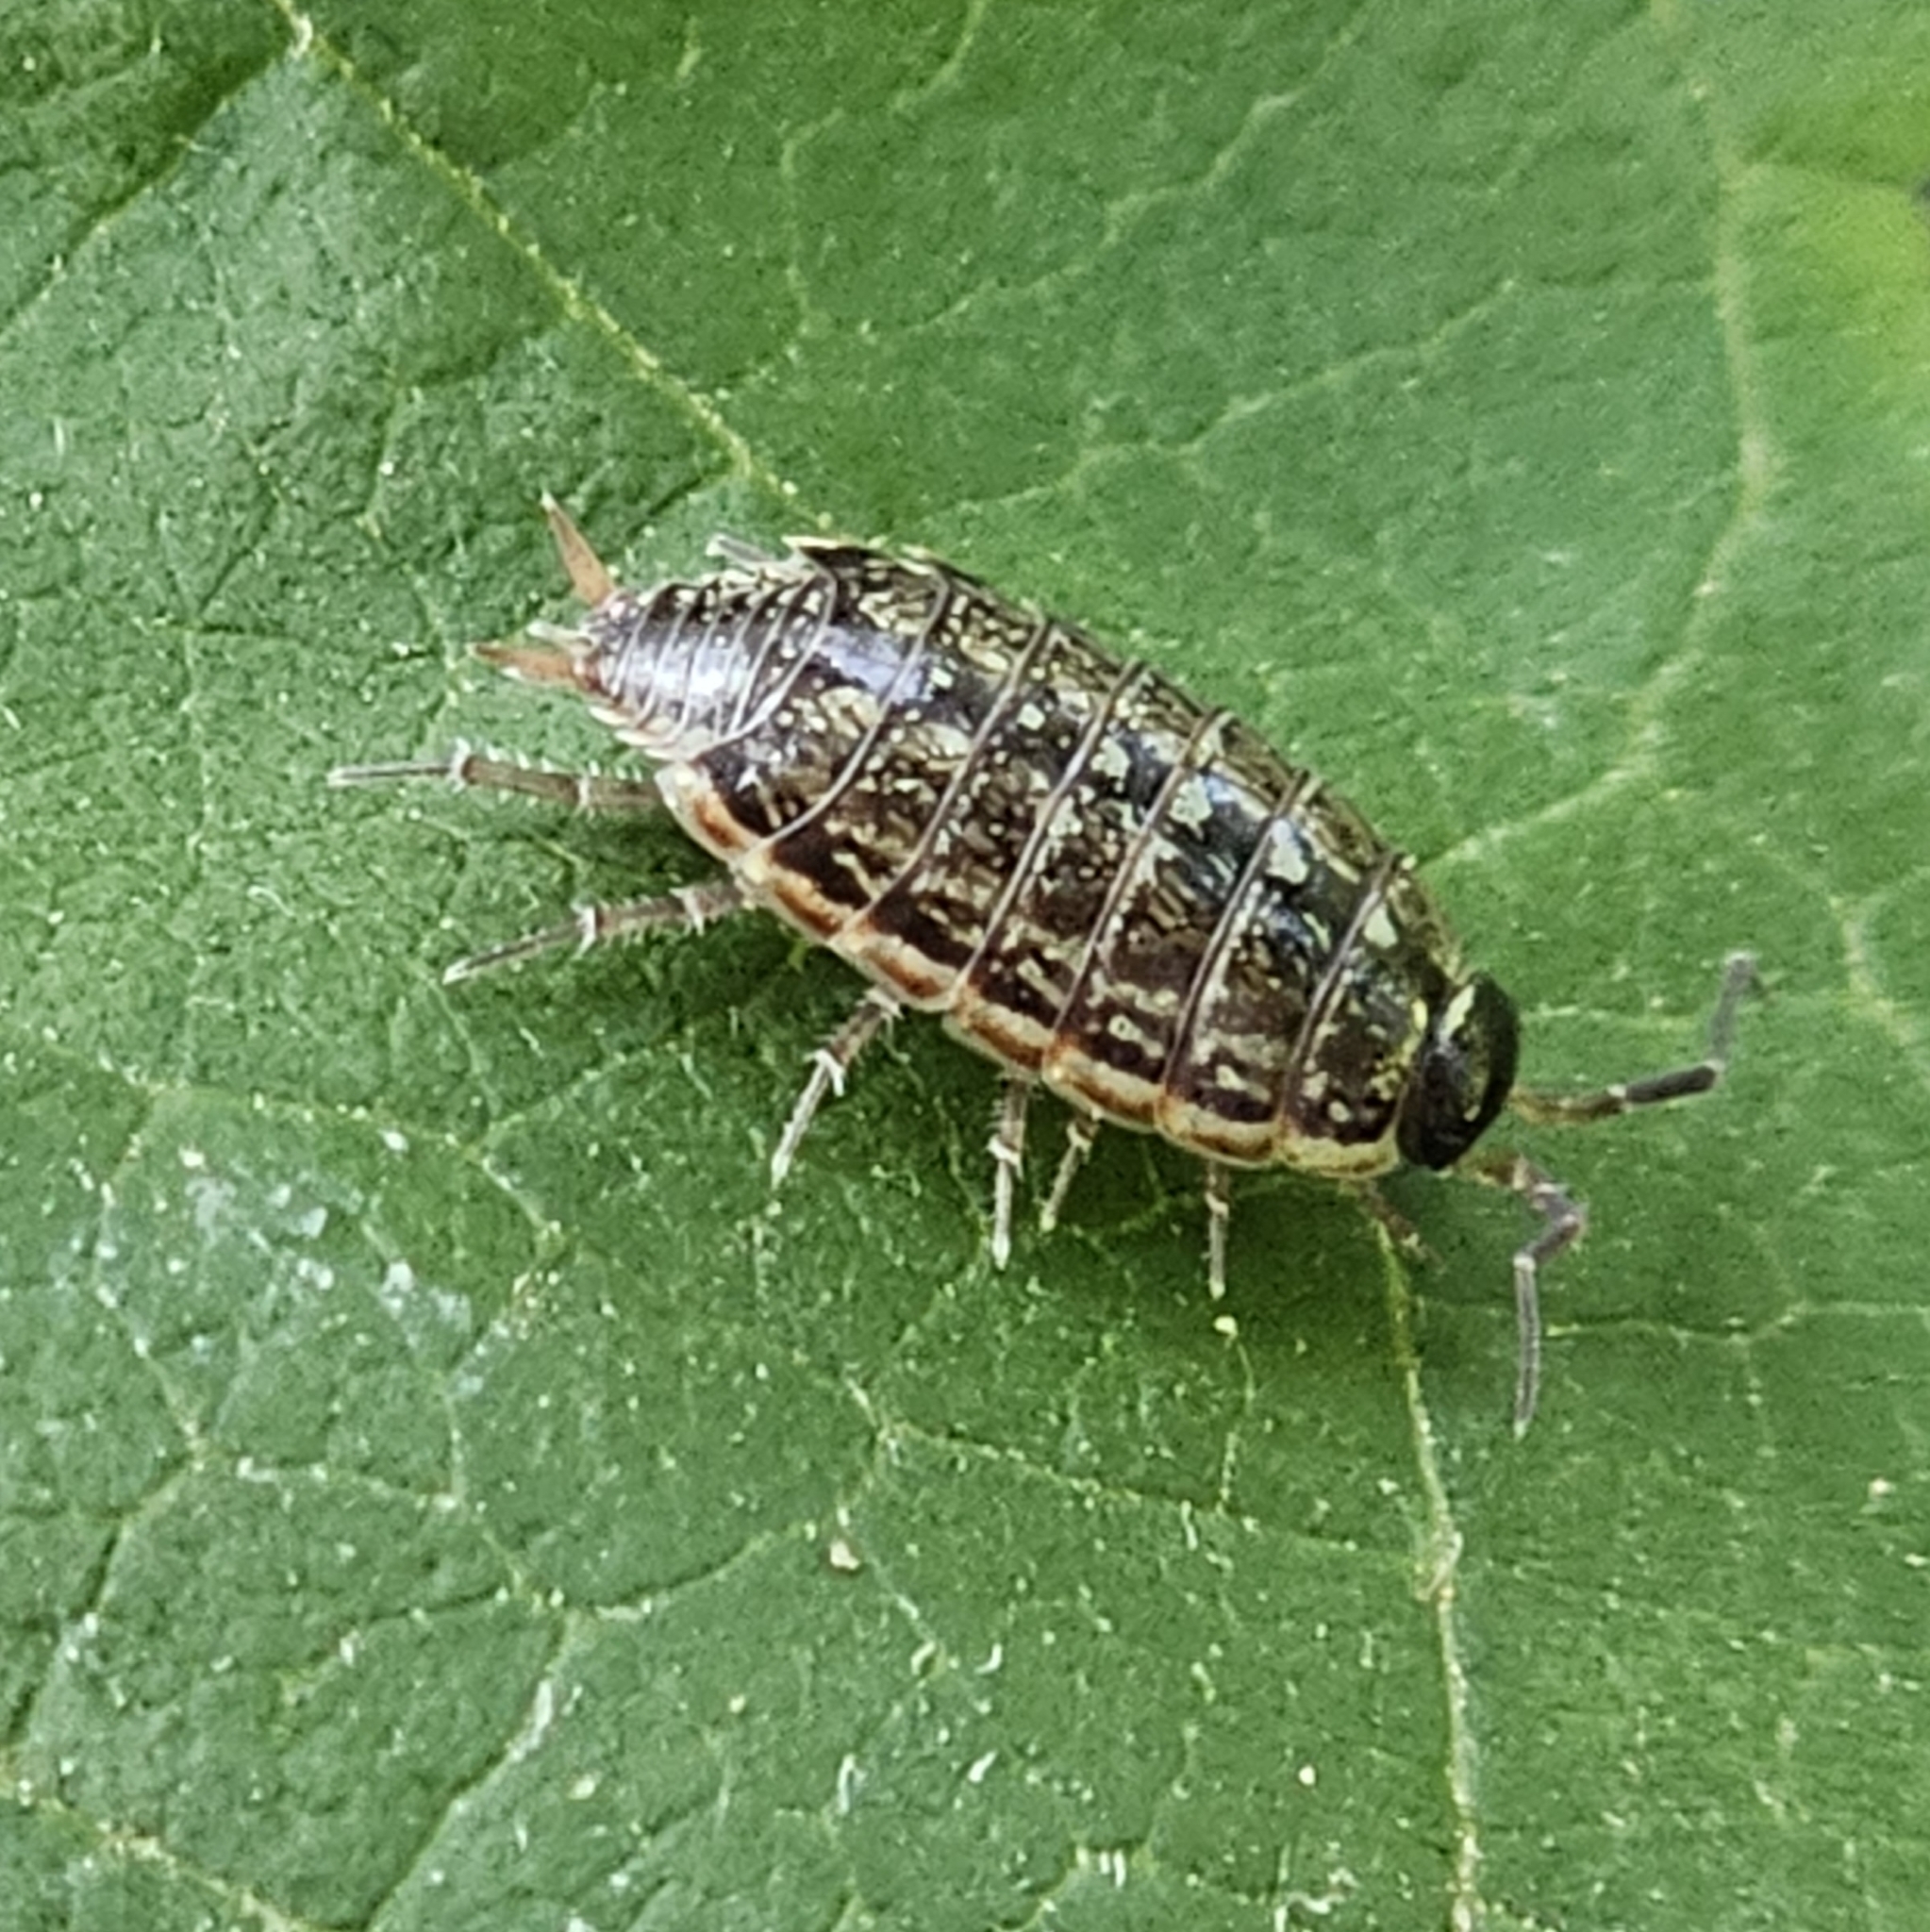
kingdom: Animalia
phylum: Arthropoda
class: Malacostraca
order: Isopoda
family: Philosciidae
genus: Philoscia
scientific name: Philoscia muscorum
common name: Common striped woodlouse
